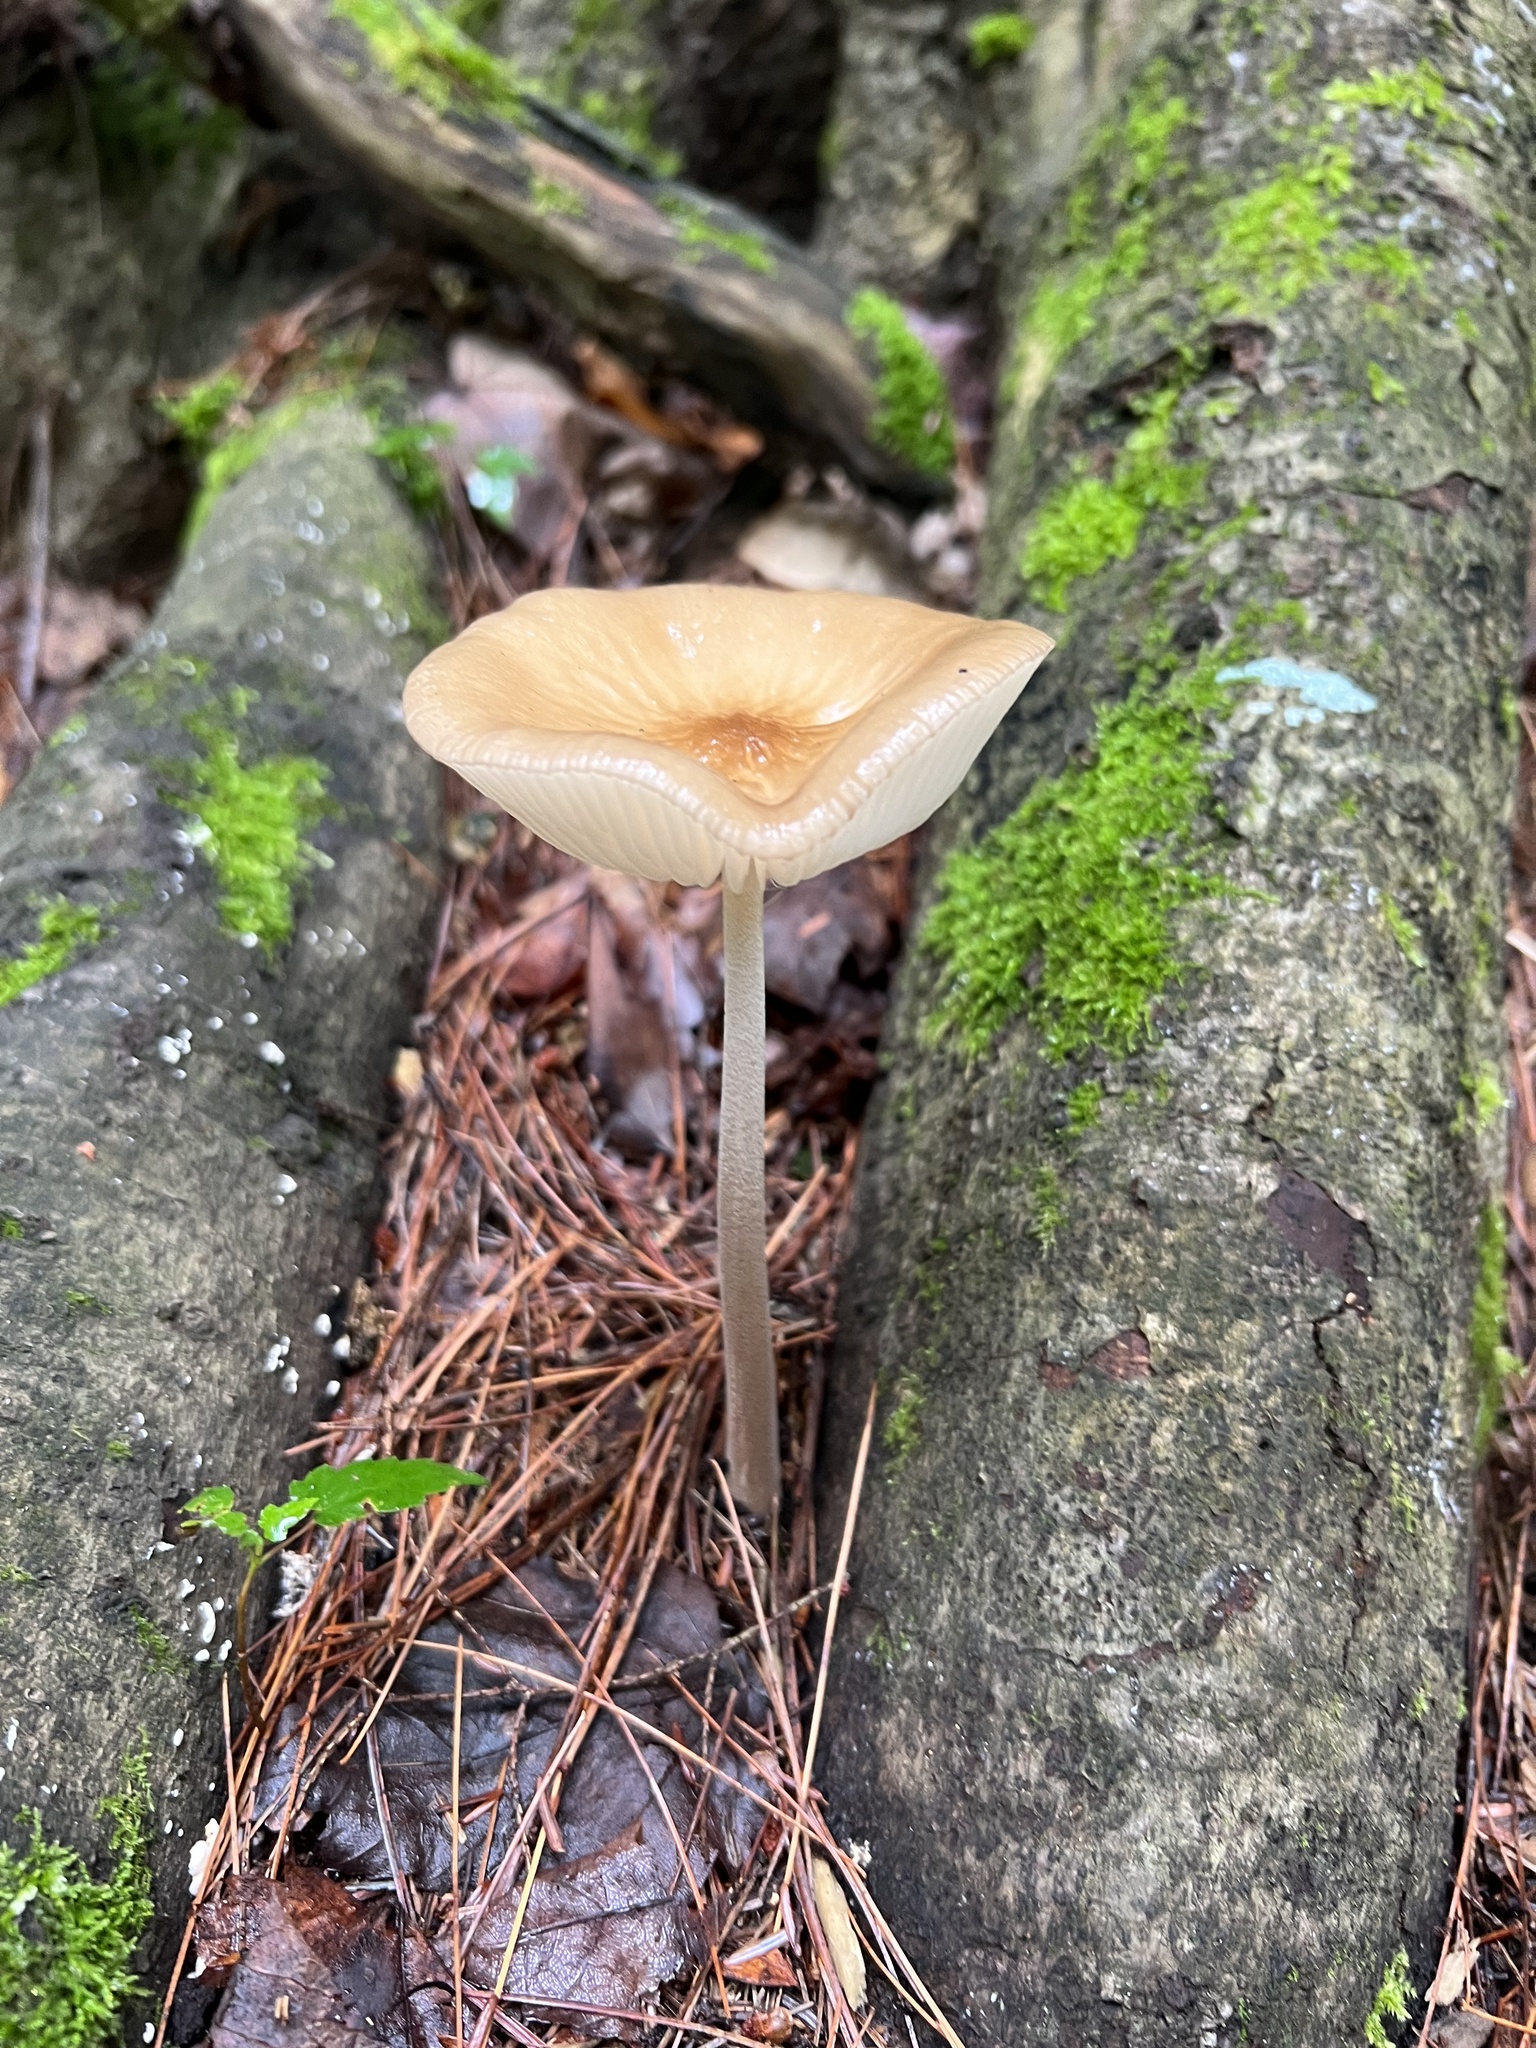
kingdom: Fungi
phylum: Basidiomycota
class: Agaricomycetes
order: Agaricales
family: Physalacriaceae
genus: Hymenopellis
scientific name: Hymenopellis furfuracea
